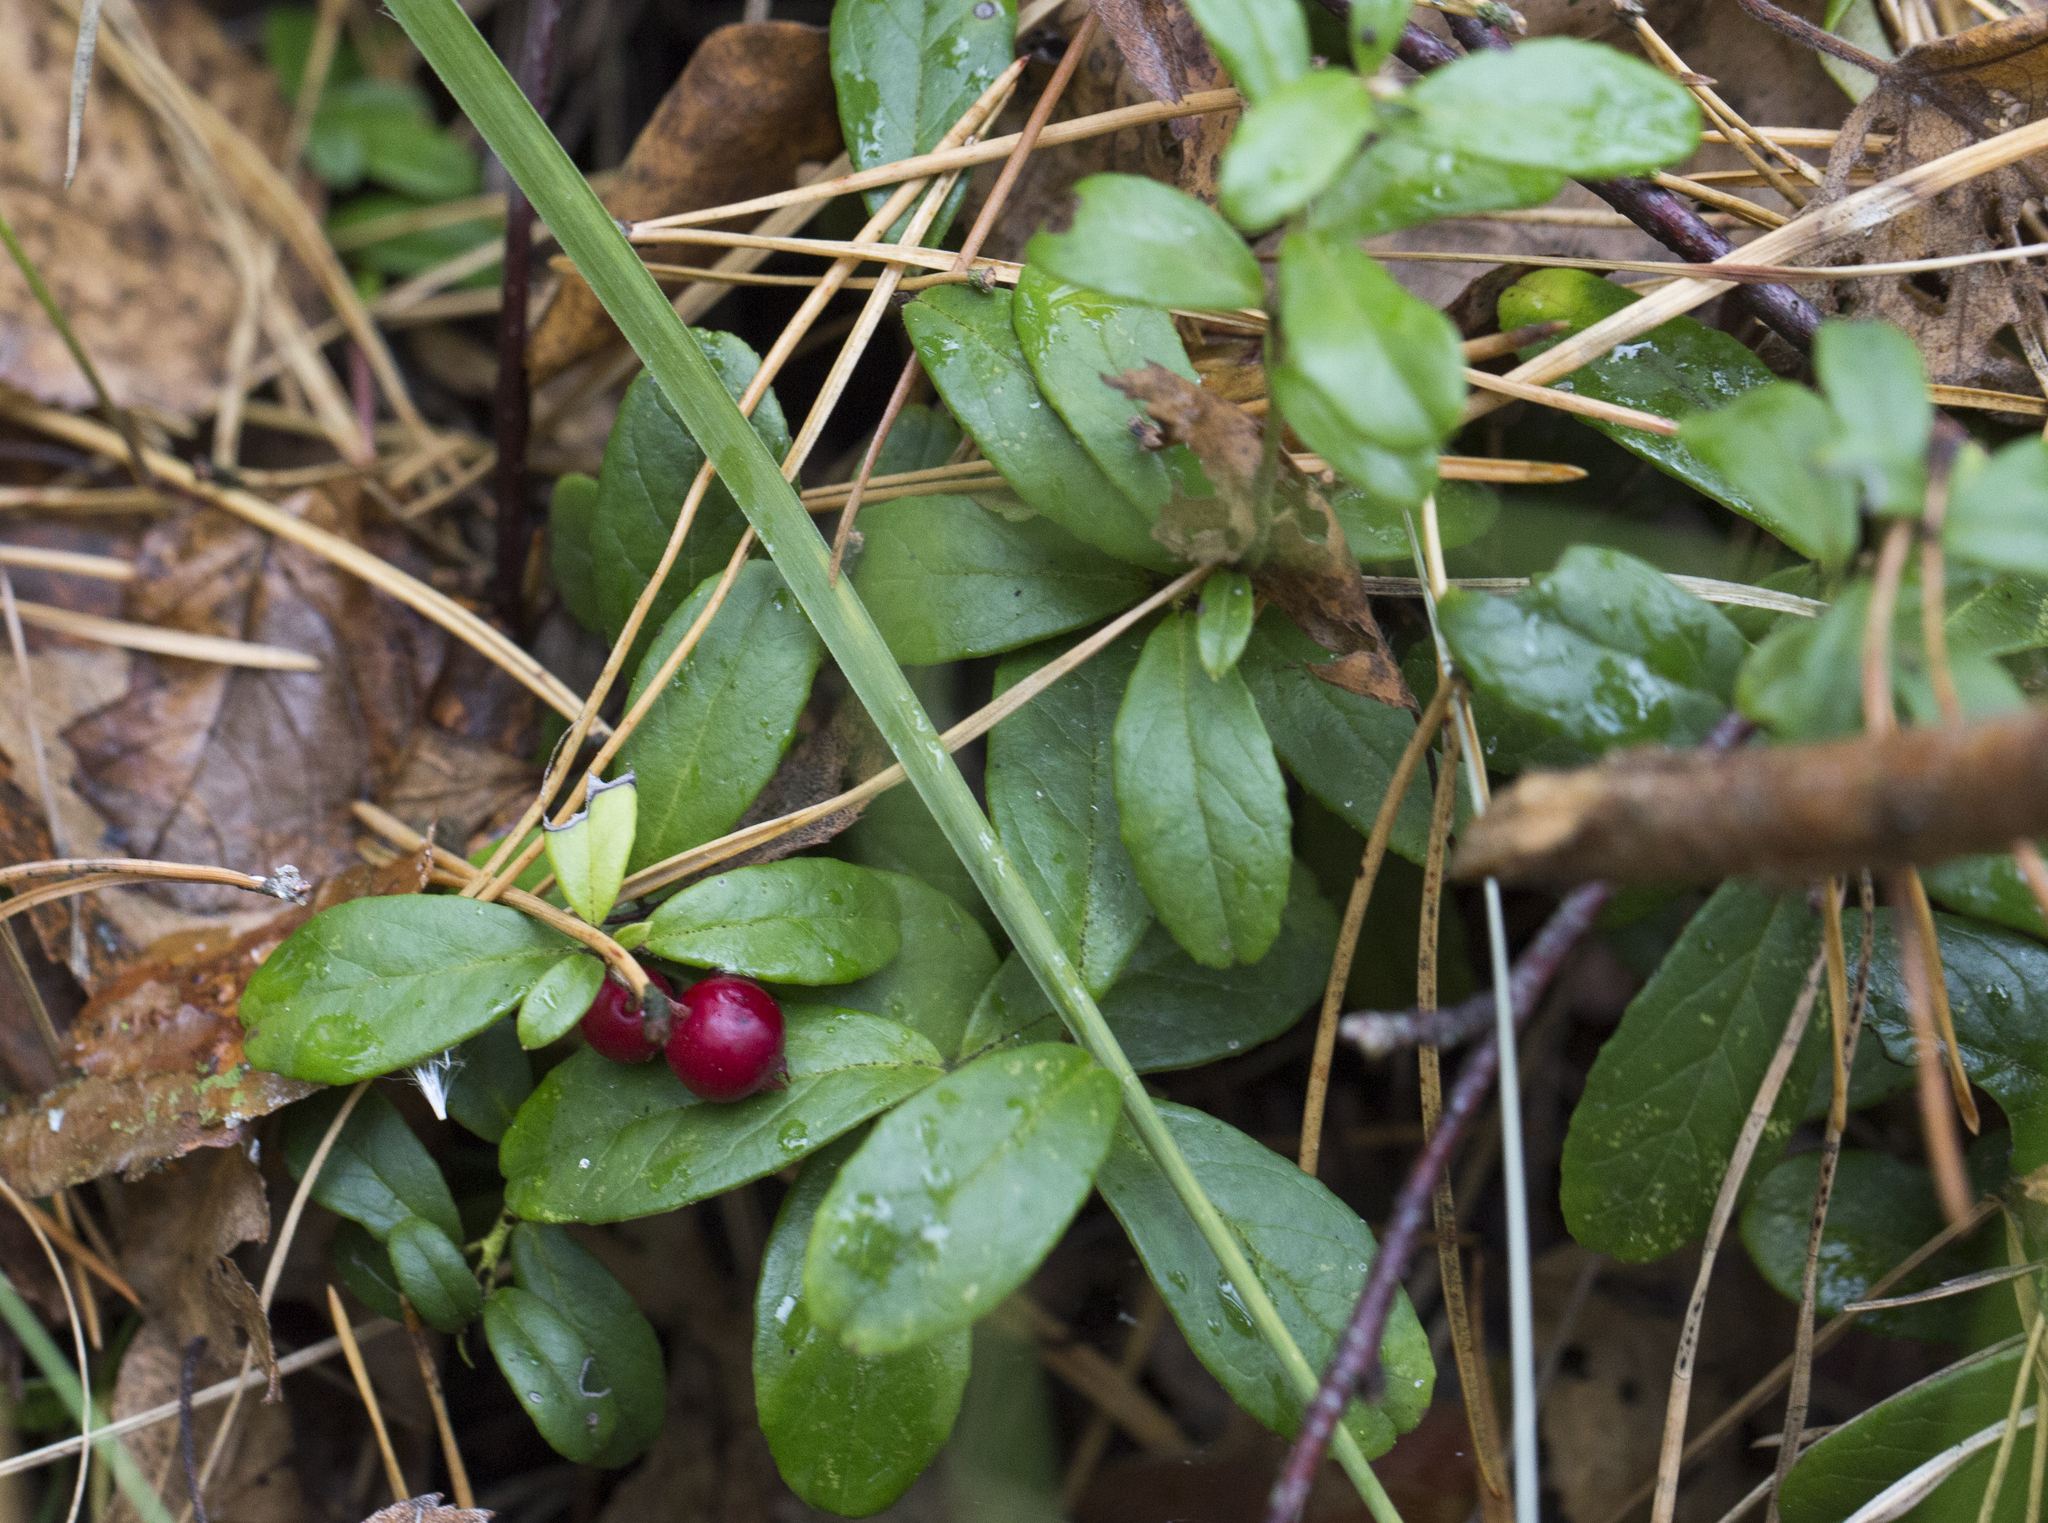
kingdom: Plantae
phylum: Tracheophyta
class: Magnoliopsida
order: Ericales
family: Ericaceae
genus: Vaccinium
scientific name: Vaccinium vitis-idaea
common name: Cowberry
